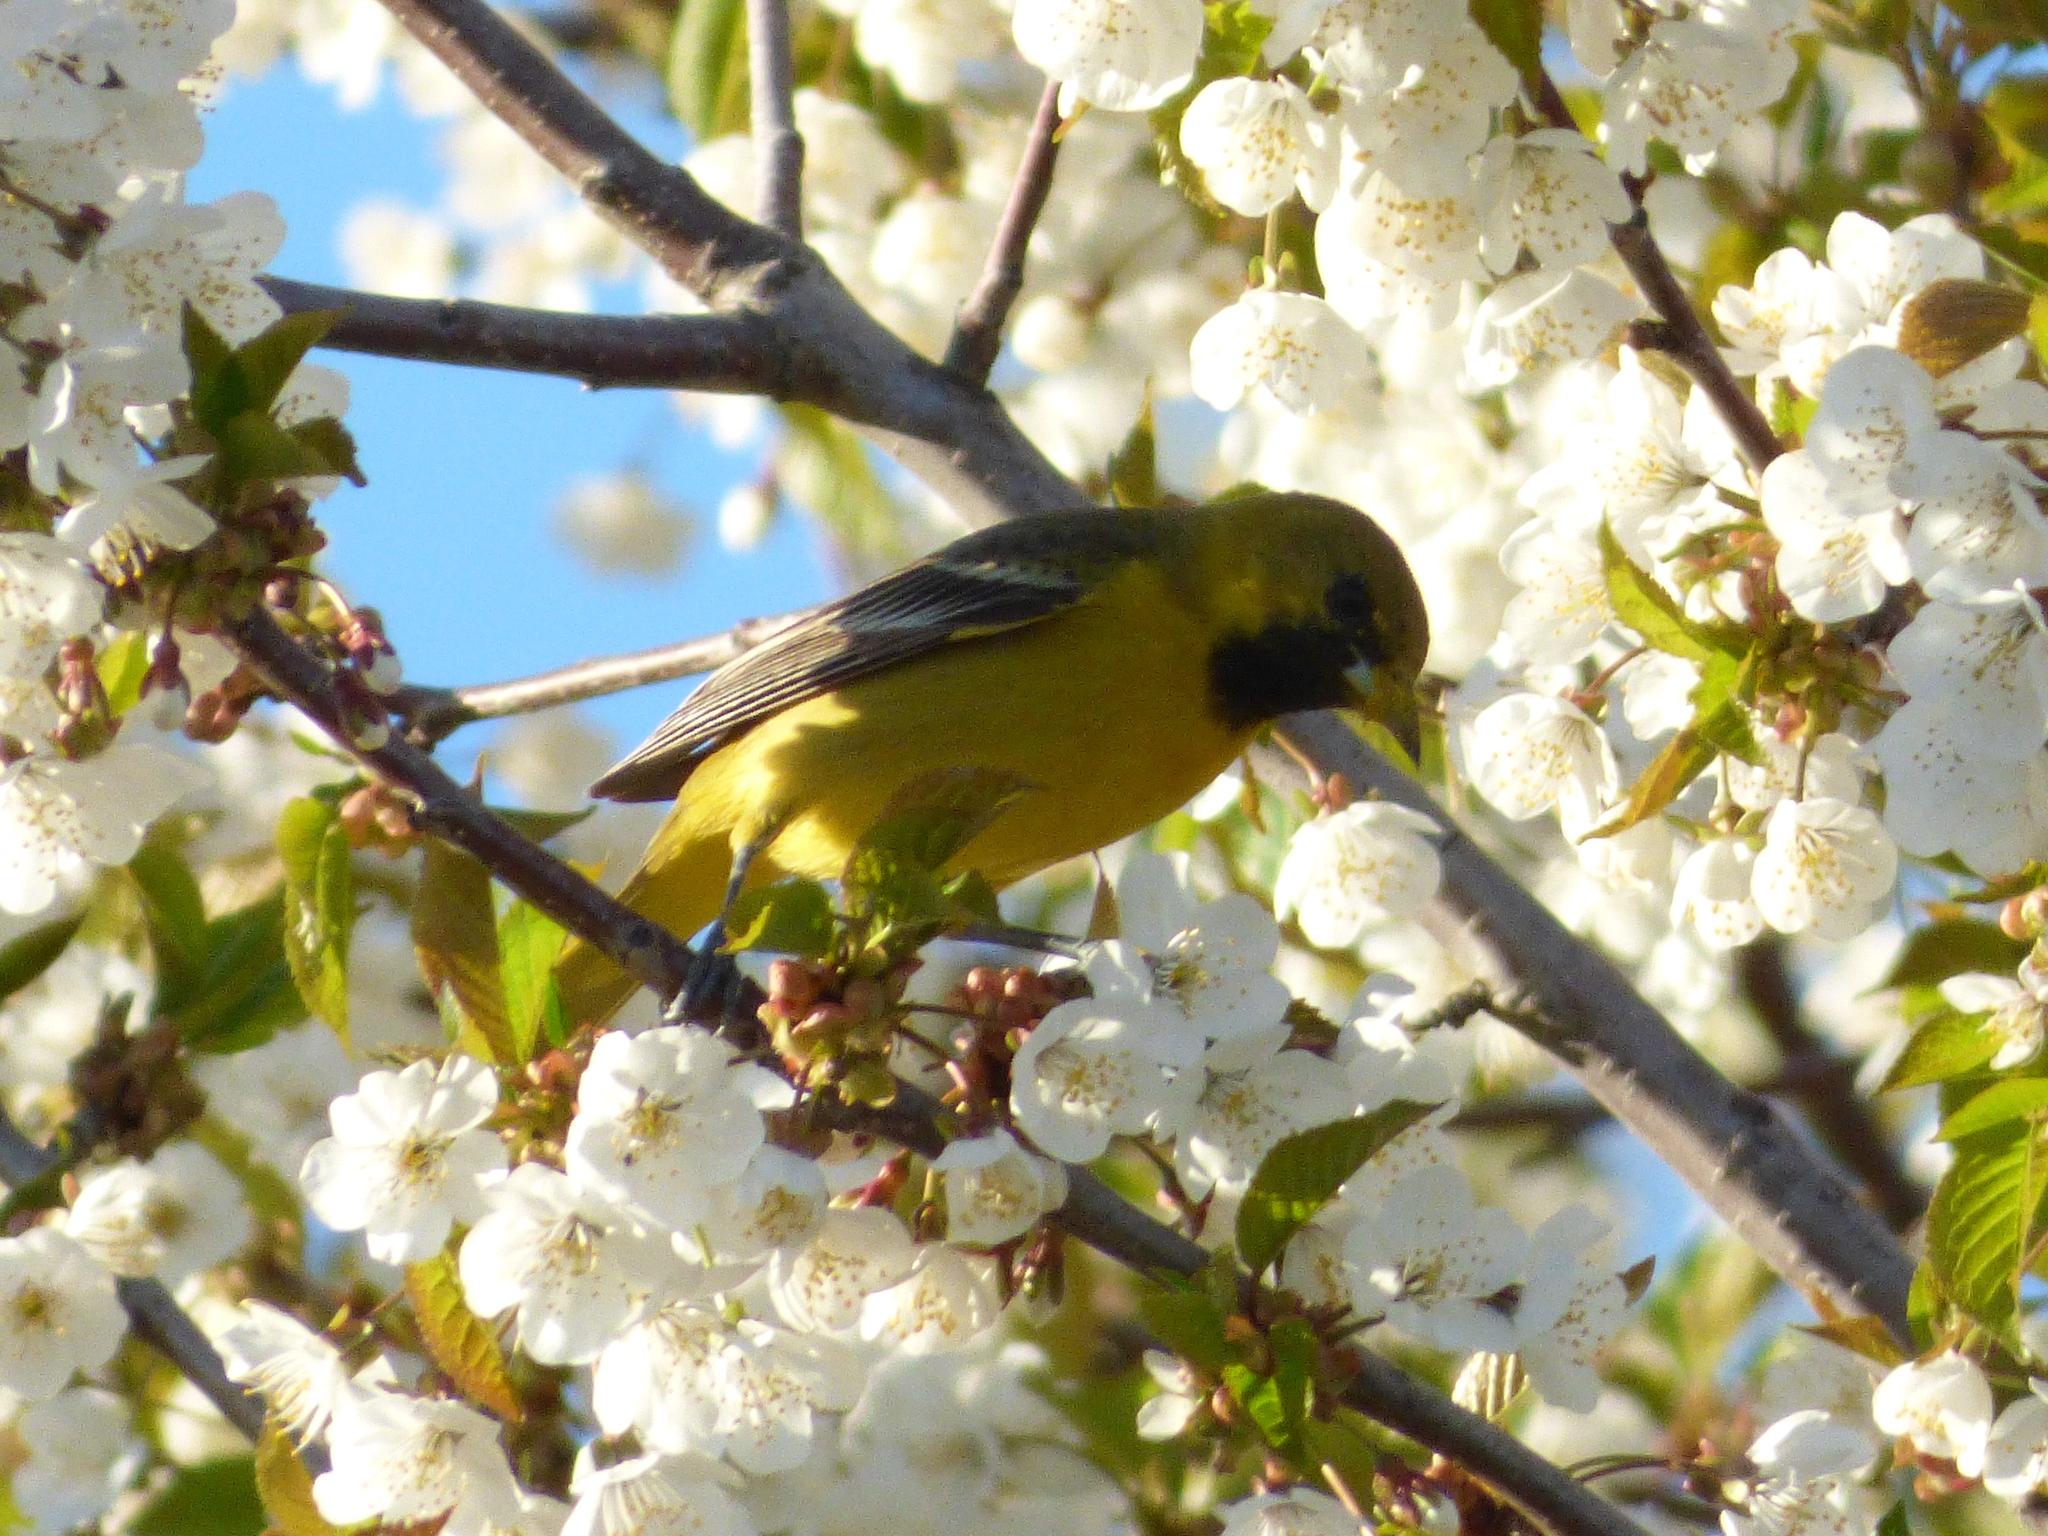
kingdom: Animalia
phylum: Chordata
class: Aves
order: Passeriformes
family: Icteridae
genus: Icterus
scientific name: Icterus spurius
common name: Orchard oriole
